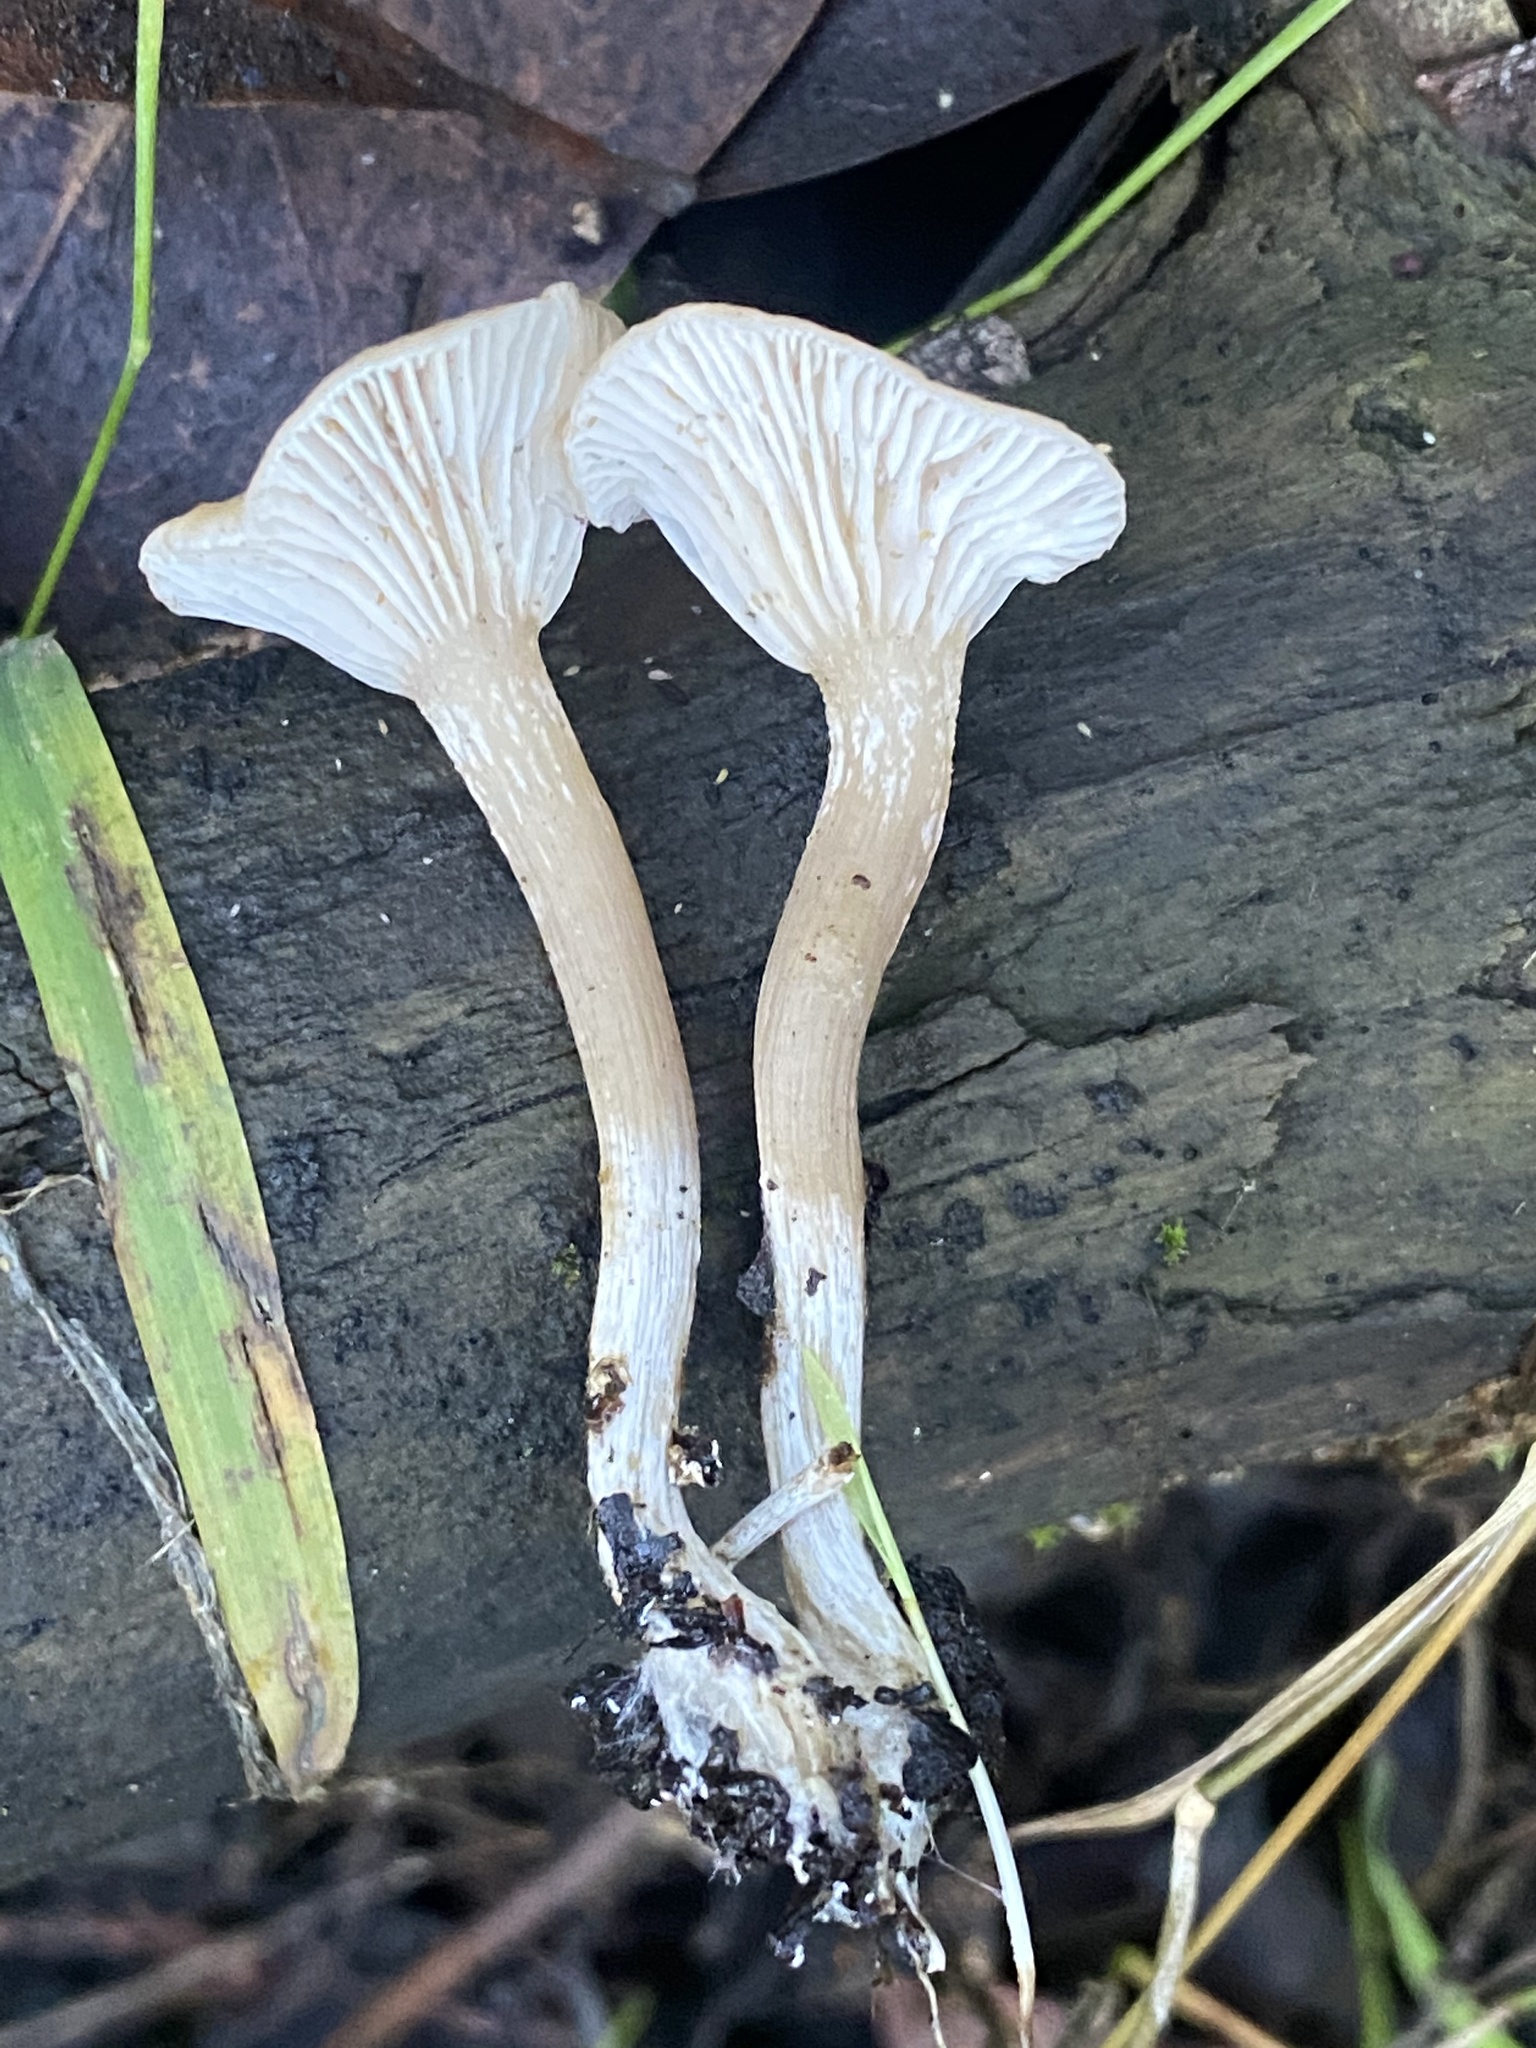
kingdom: Fungi
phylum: Basidiomycota
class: Agaricomycetes
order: Agaricales
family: Tricholomataceae
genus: Clitocybe
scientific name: Clitocybe fragrans
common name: Fragrant funnel
